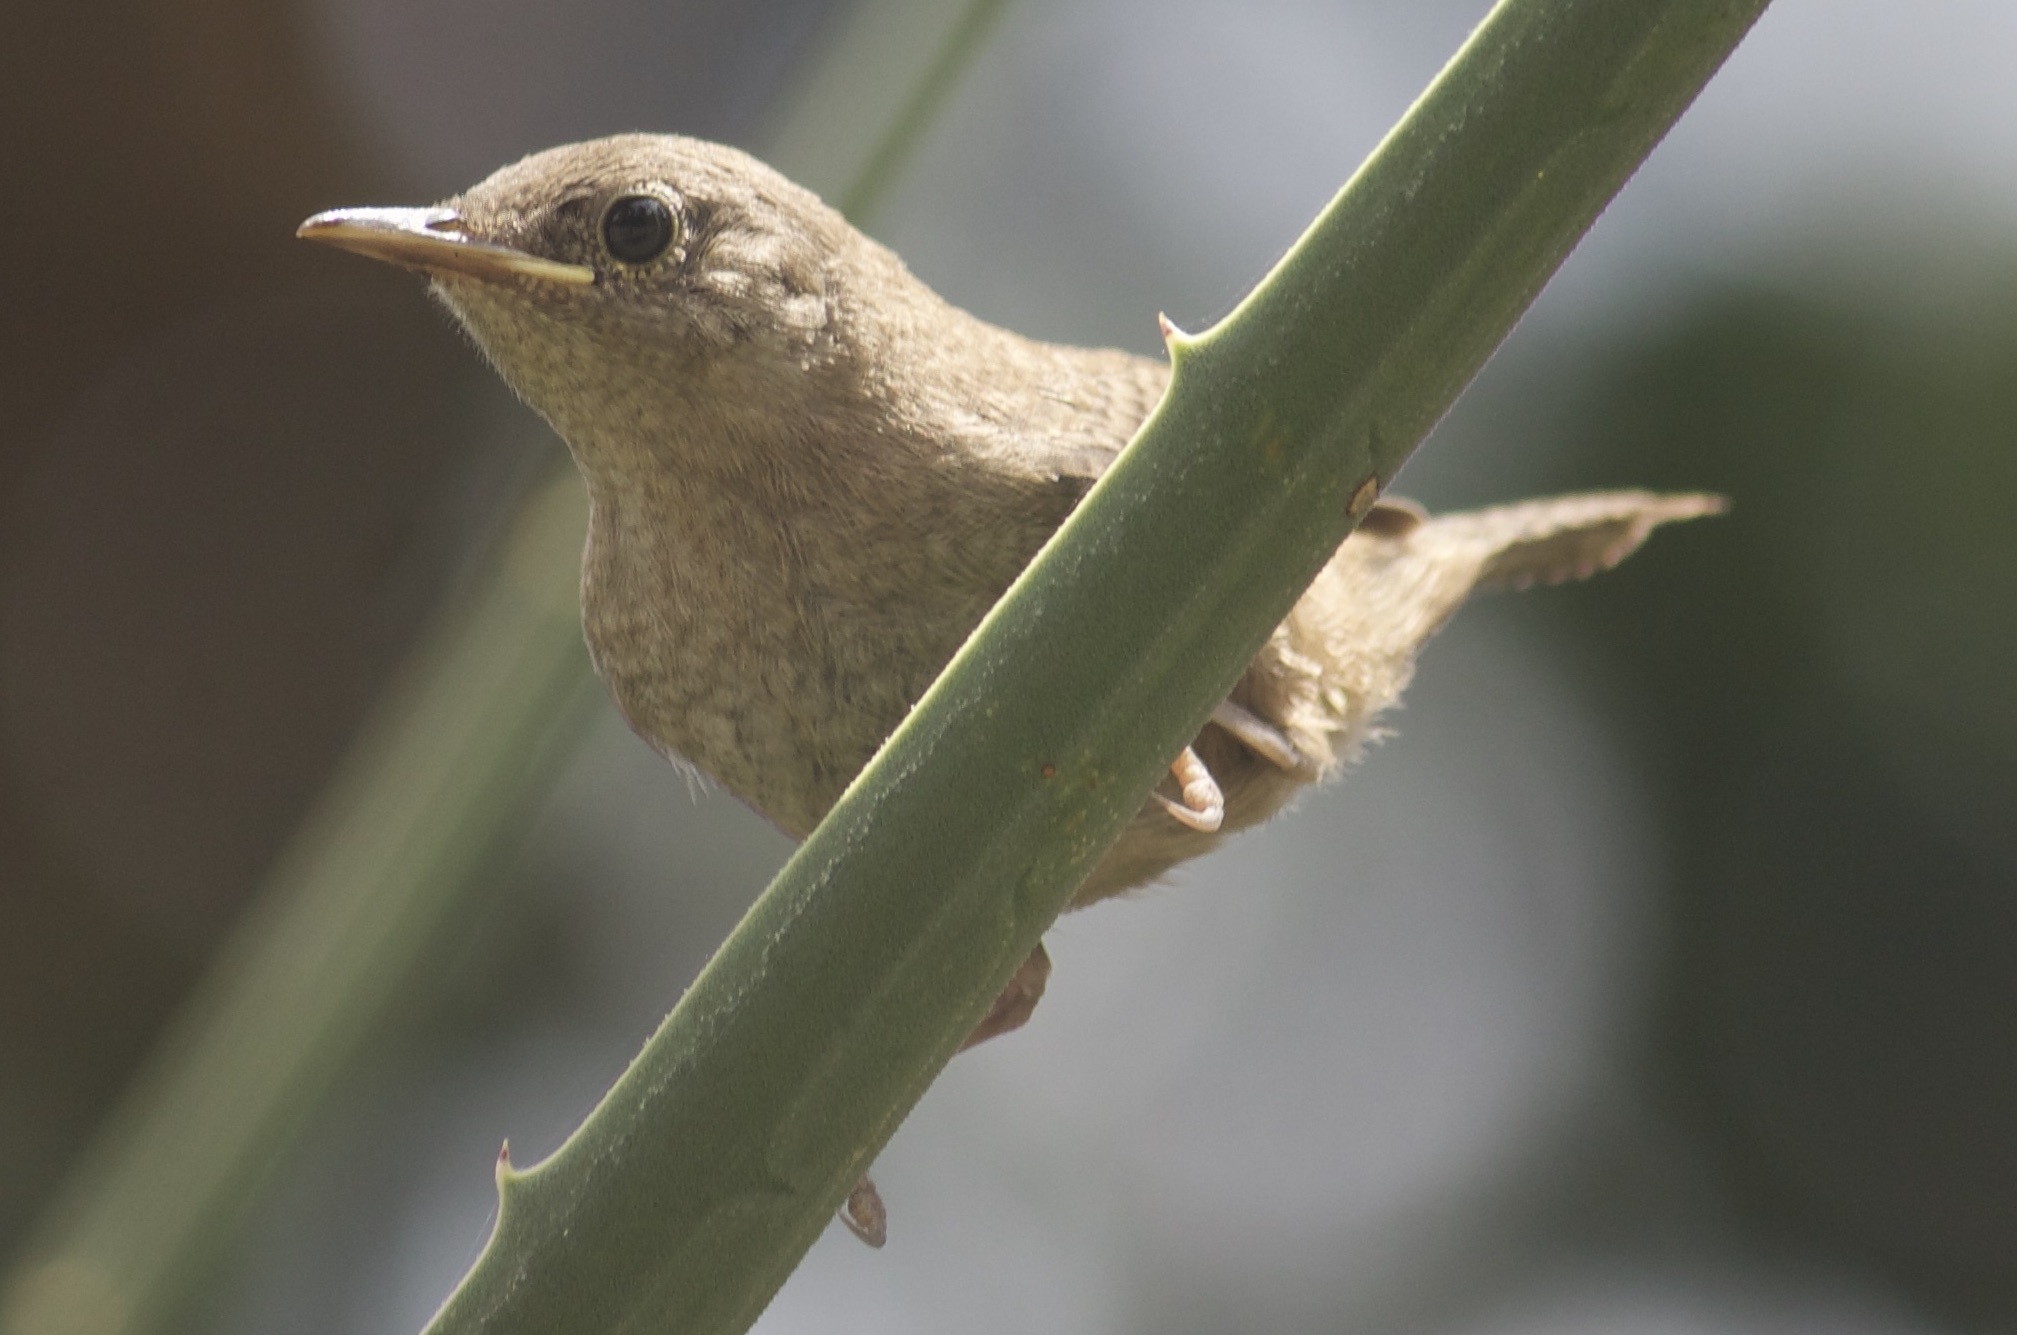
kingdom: Animalia
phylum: Chordata
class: Aves
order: Passeriformes
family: Troglodytidae
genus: Troglodytes
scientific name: Troglodytes aedon
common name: House wren
